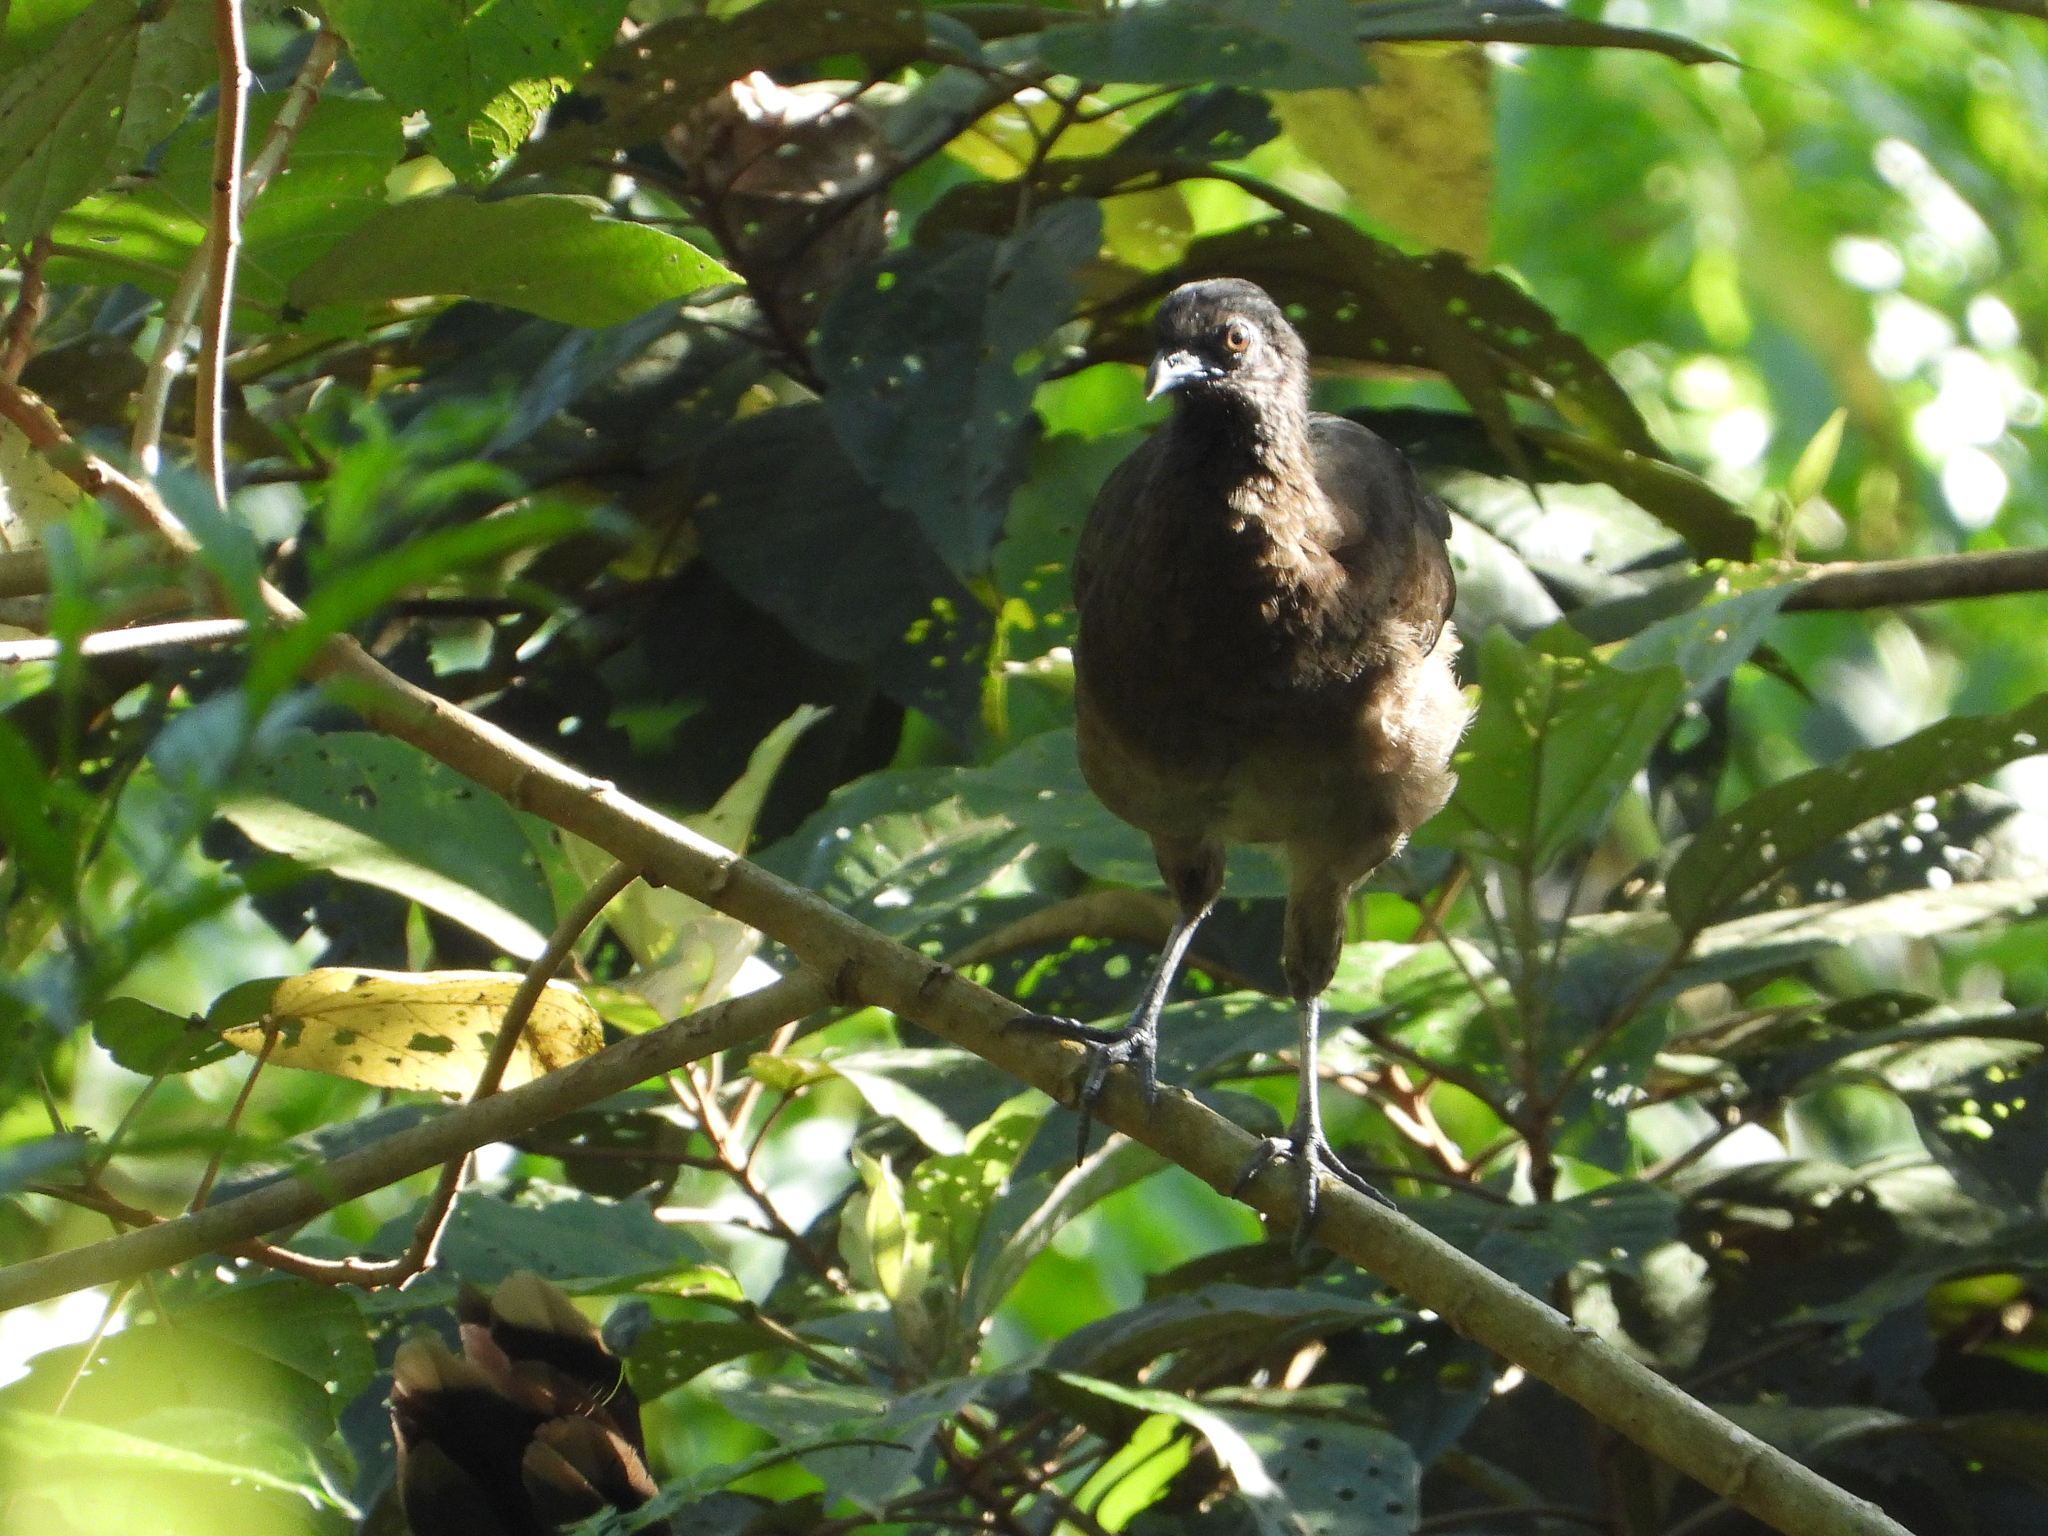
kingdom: Animalia
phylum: Chordata
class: Aves
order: Galliformes
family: Cracidae
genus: Ortalis
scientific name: Ortalis cinereiceps
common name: Grey-headed chachalaca
